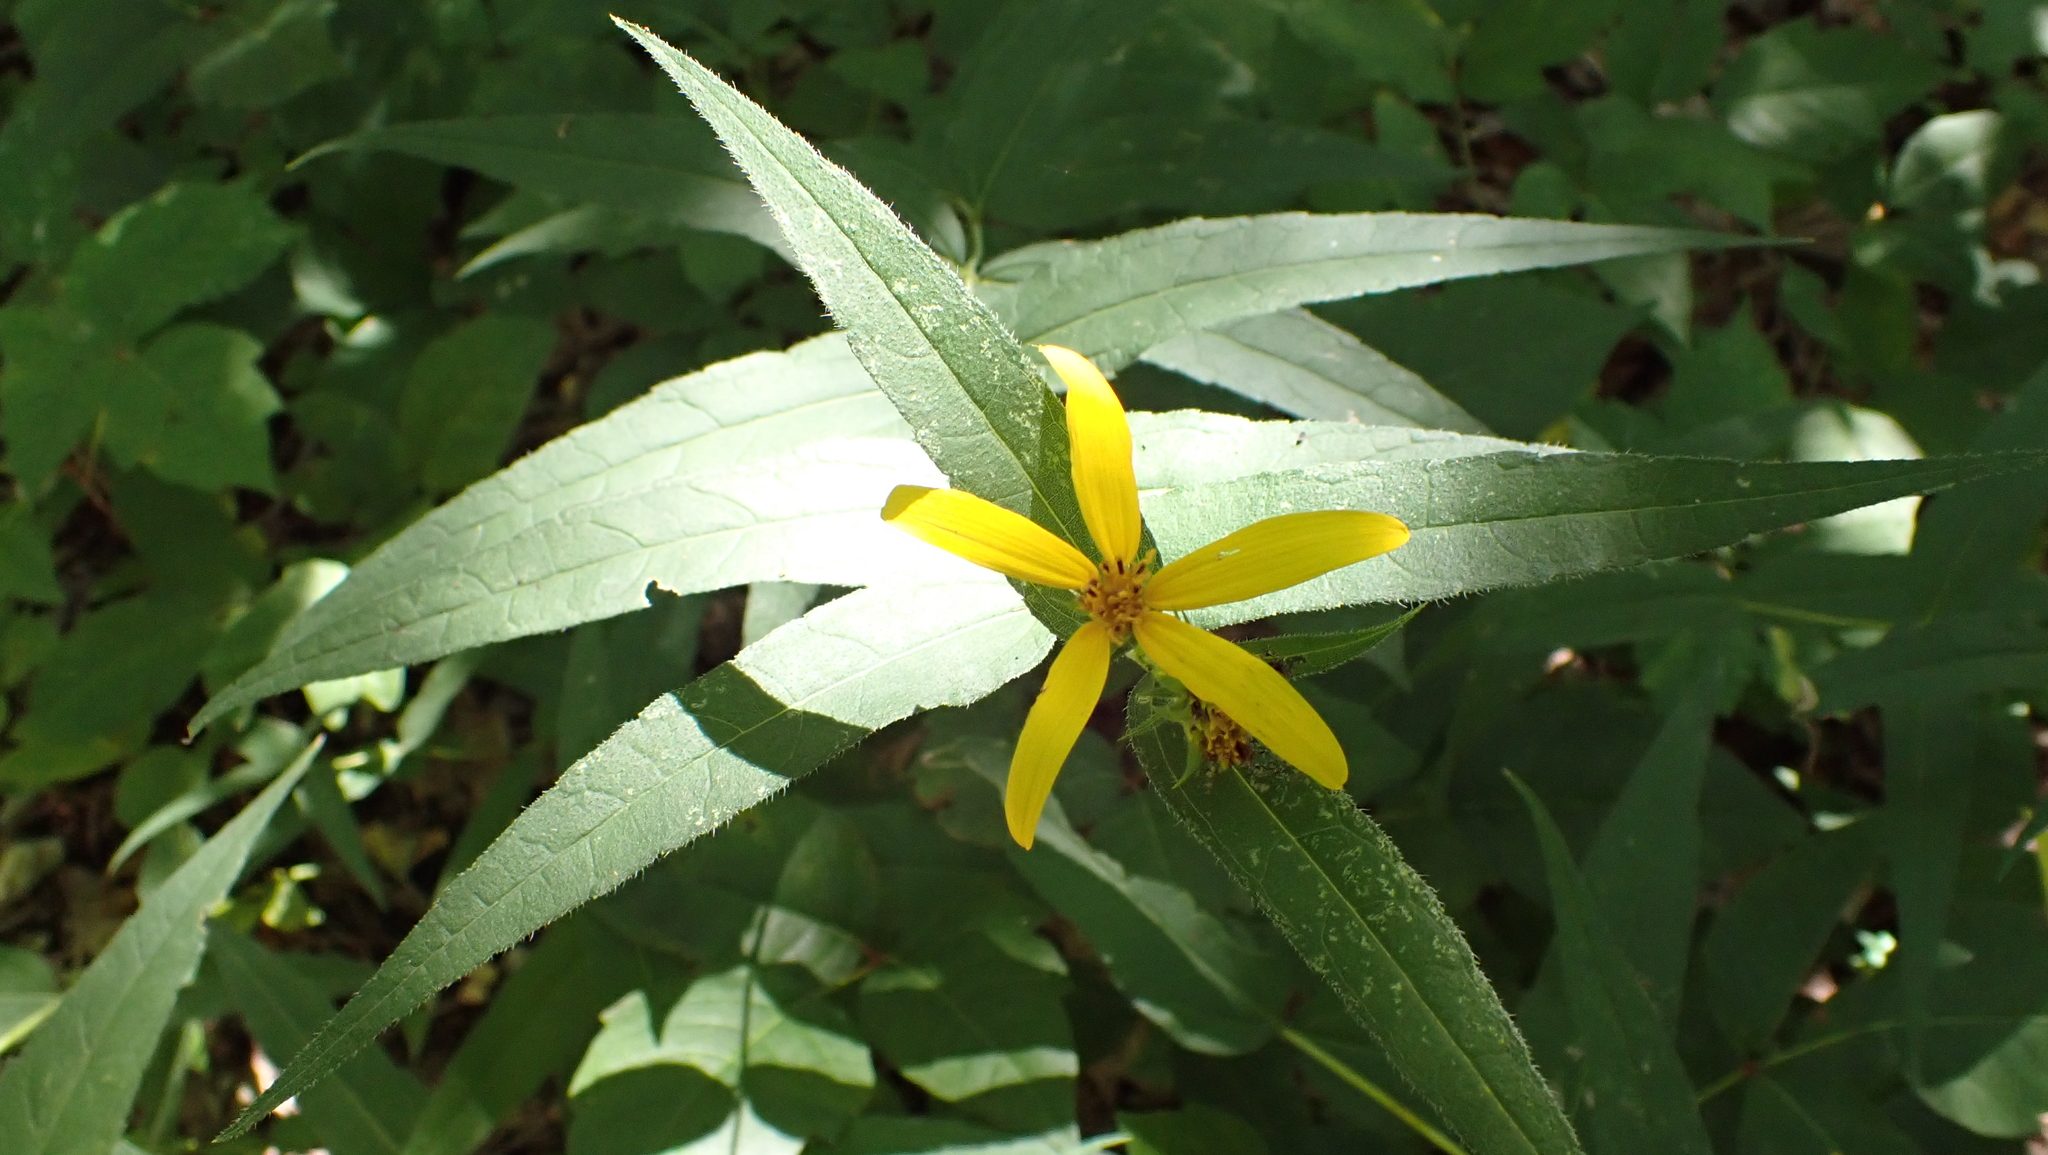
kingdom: Plantae
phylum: Tracheophyta
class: Magnoliopsida
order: Asterales
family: Asteraceae
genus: Helianthus
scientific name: Helianthus divaricatus
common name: Divergent sunflower
